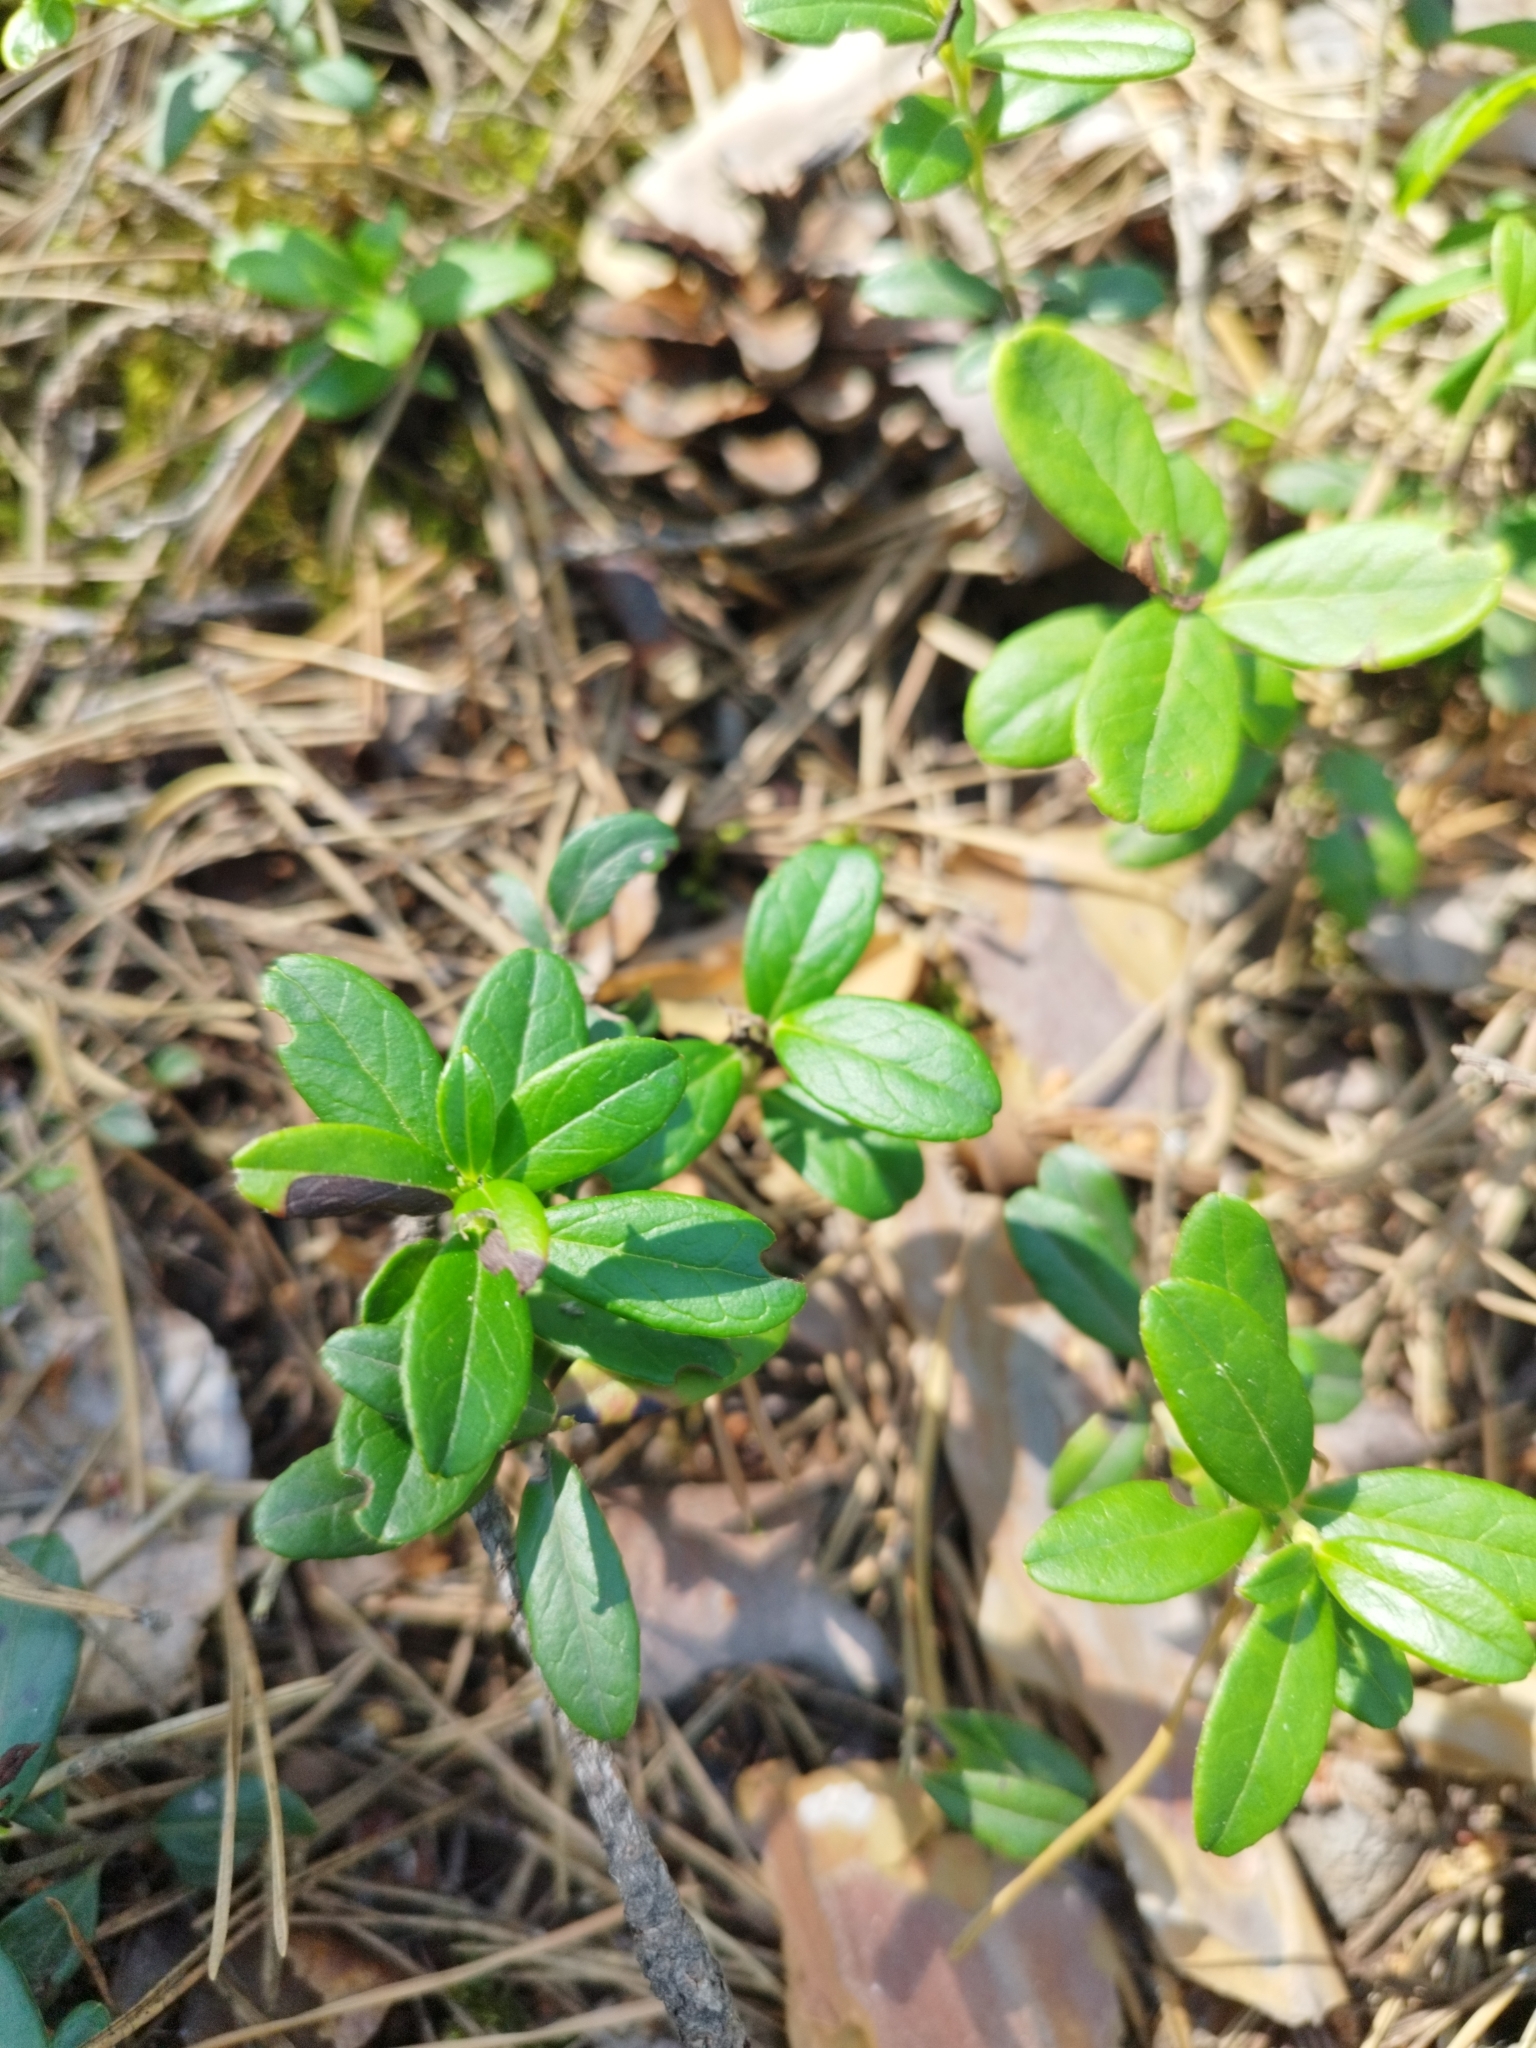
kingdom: Plantae
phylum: Tracheophyta
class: Magnoliopsida
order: Ericales
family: Ericaceae
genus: Vaccinium
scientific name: Vaccinium vitis-idaea
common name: Cowberry
